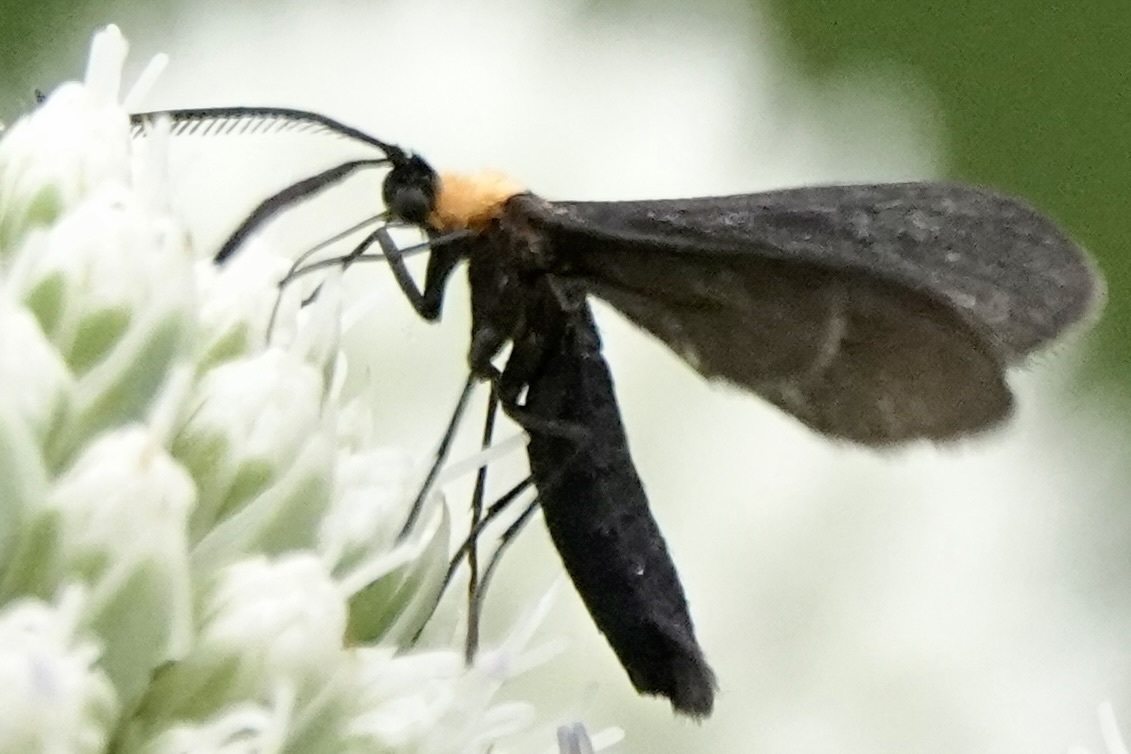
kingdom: Animalia
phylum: Arthropoda
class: Insecta
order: Lepidoptera
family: Zygaenidae
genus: Harrisina
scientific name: Harrisina americana
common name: Grapeleaf skeletonizer moth
